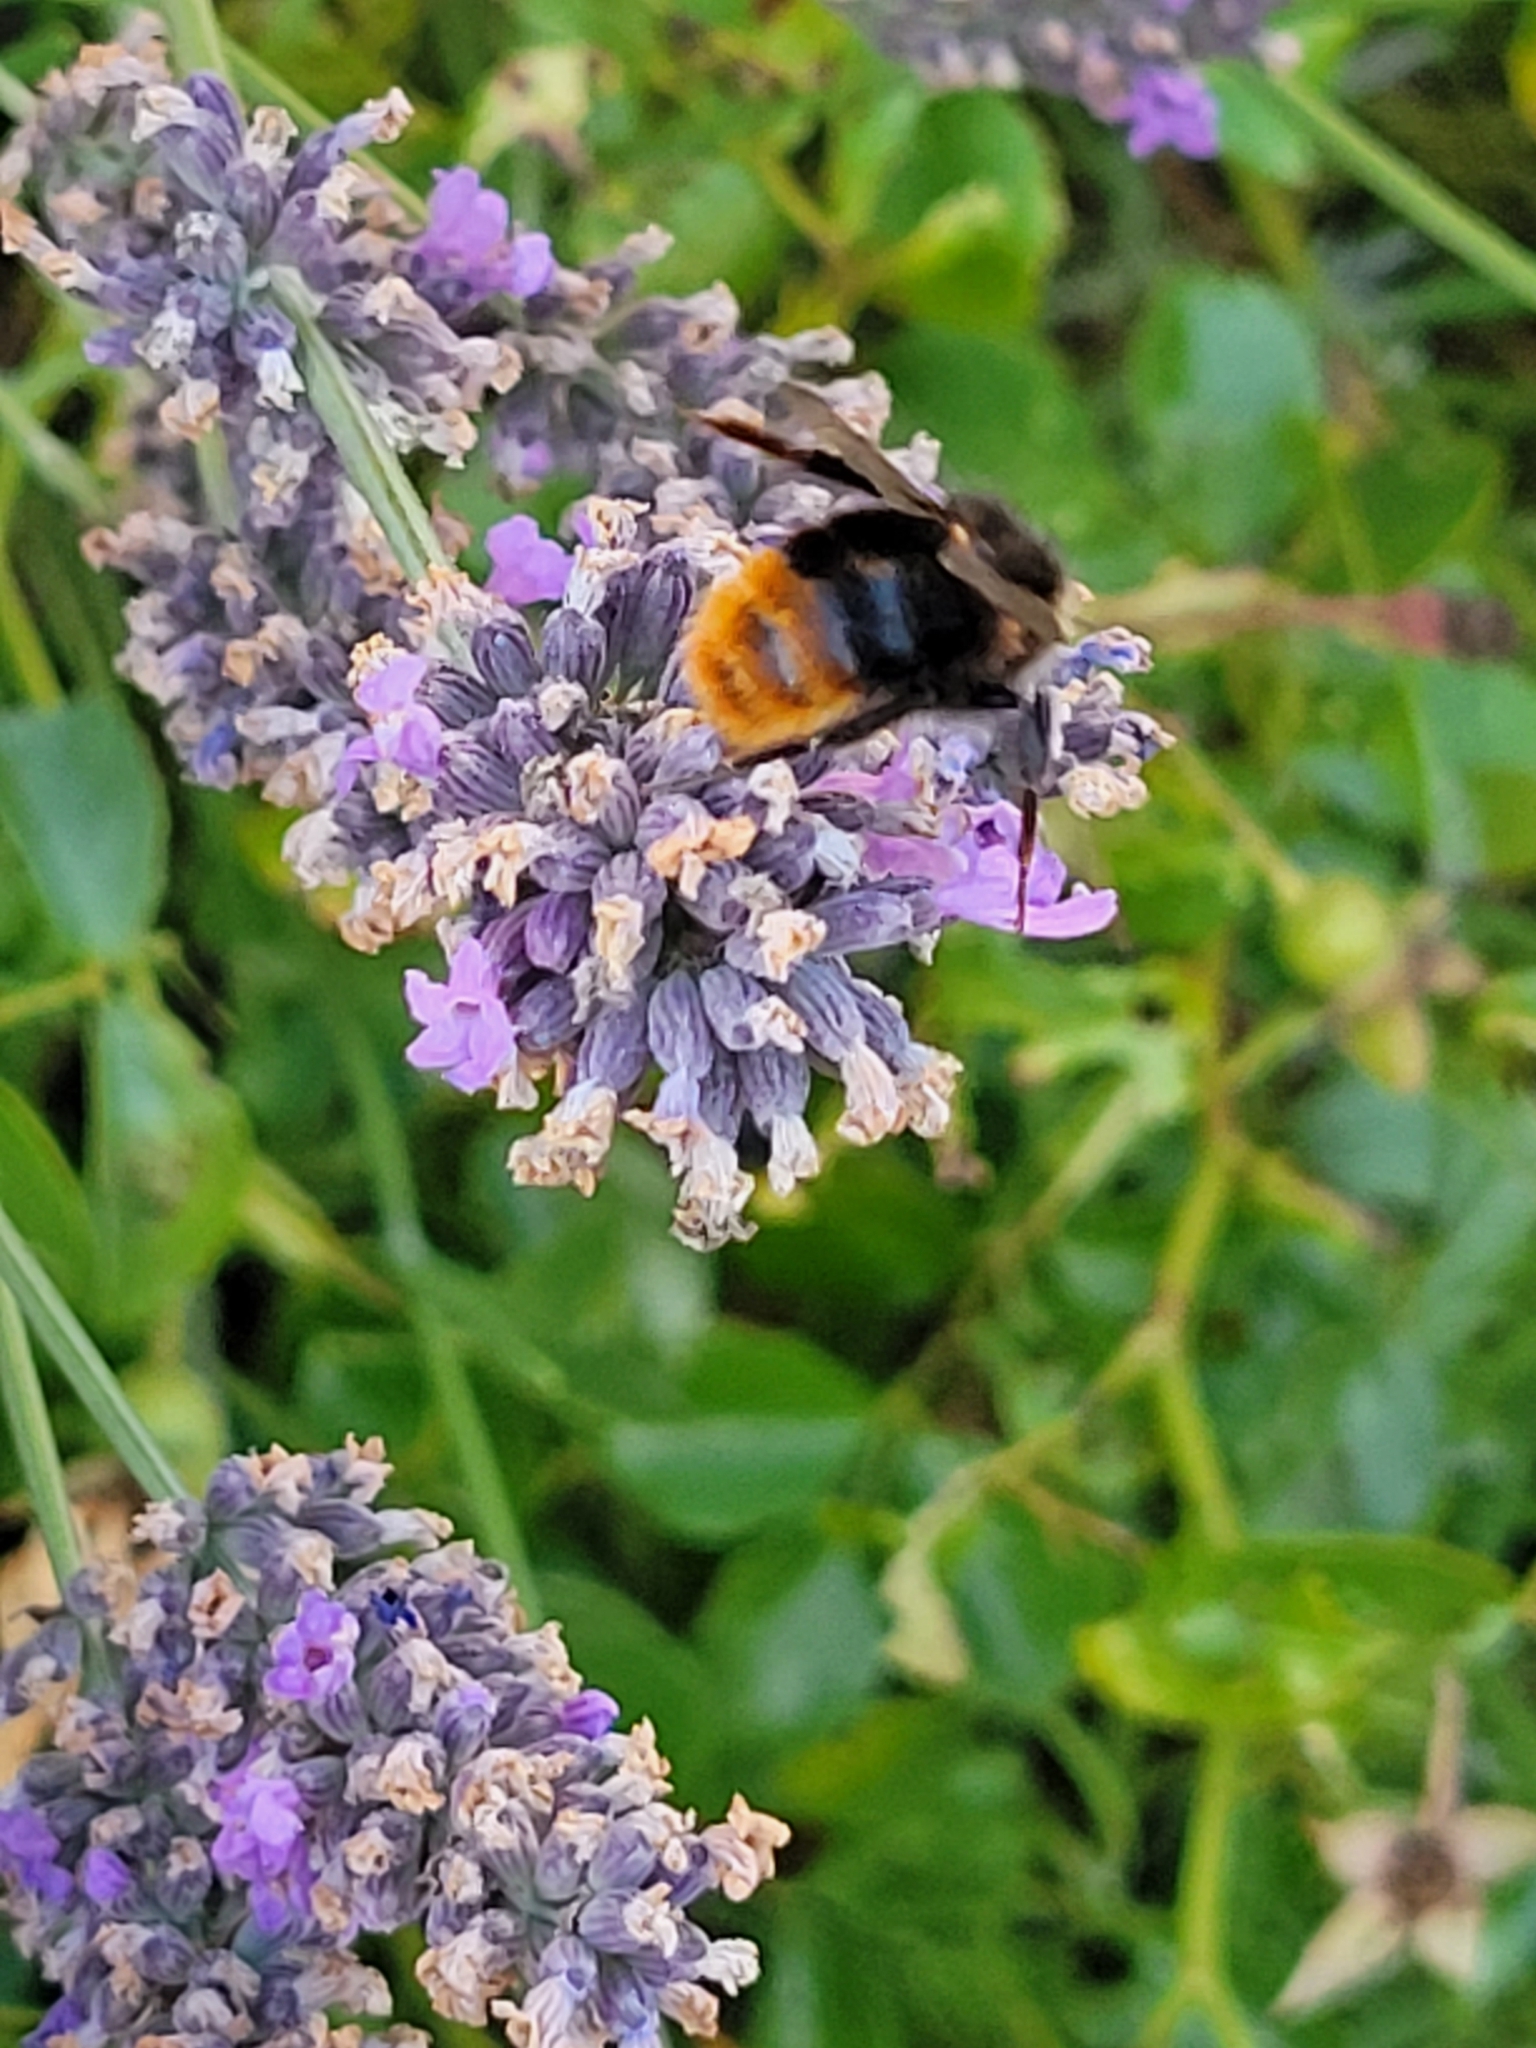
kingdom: Animalia
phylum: Arthropoda
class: Insecta
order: Hymenoptera
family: Apidae
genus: Bombus
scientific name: Bombus lapidarius
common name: Large red-tailed humble-bee
